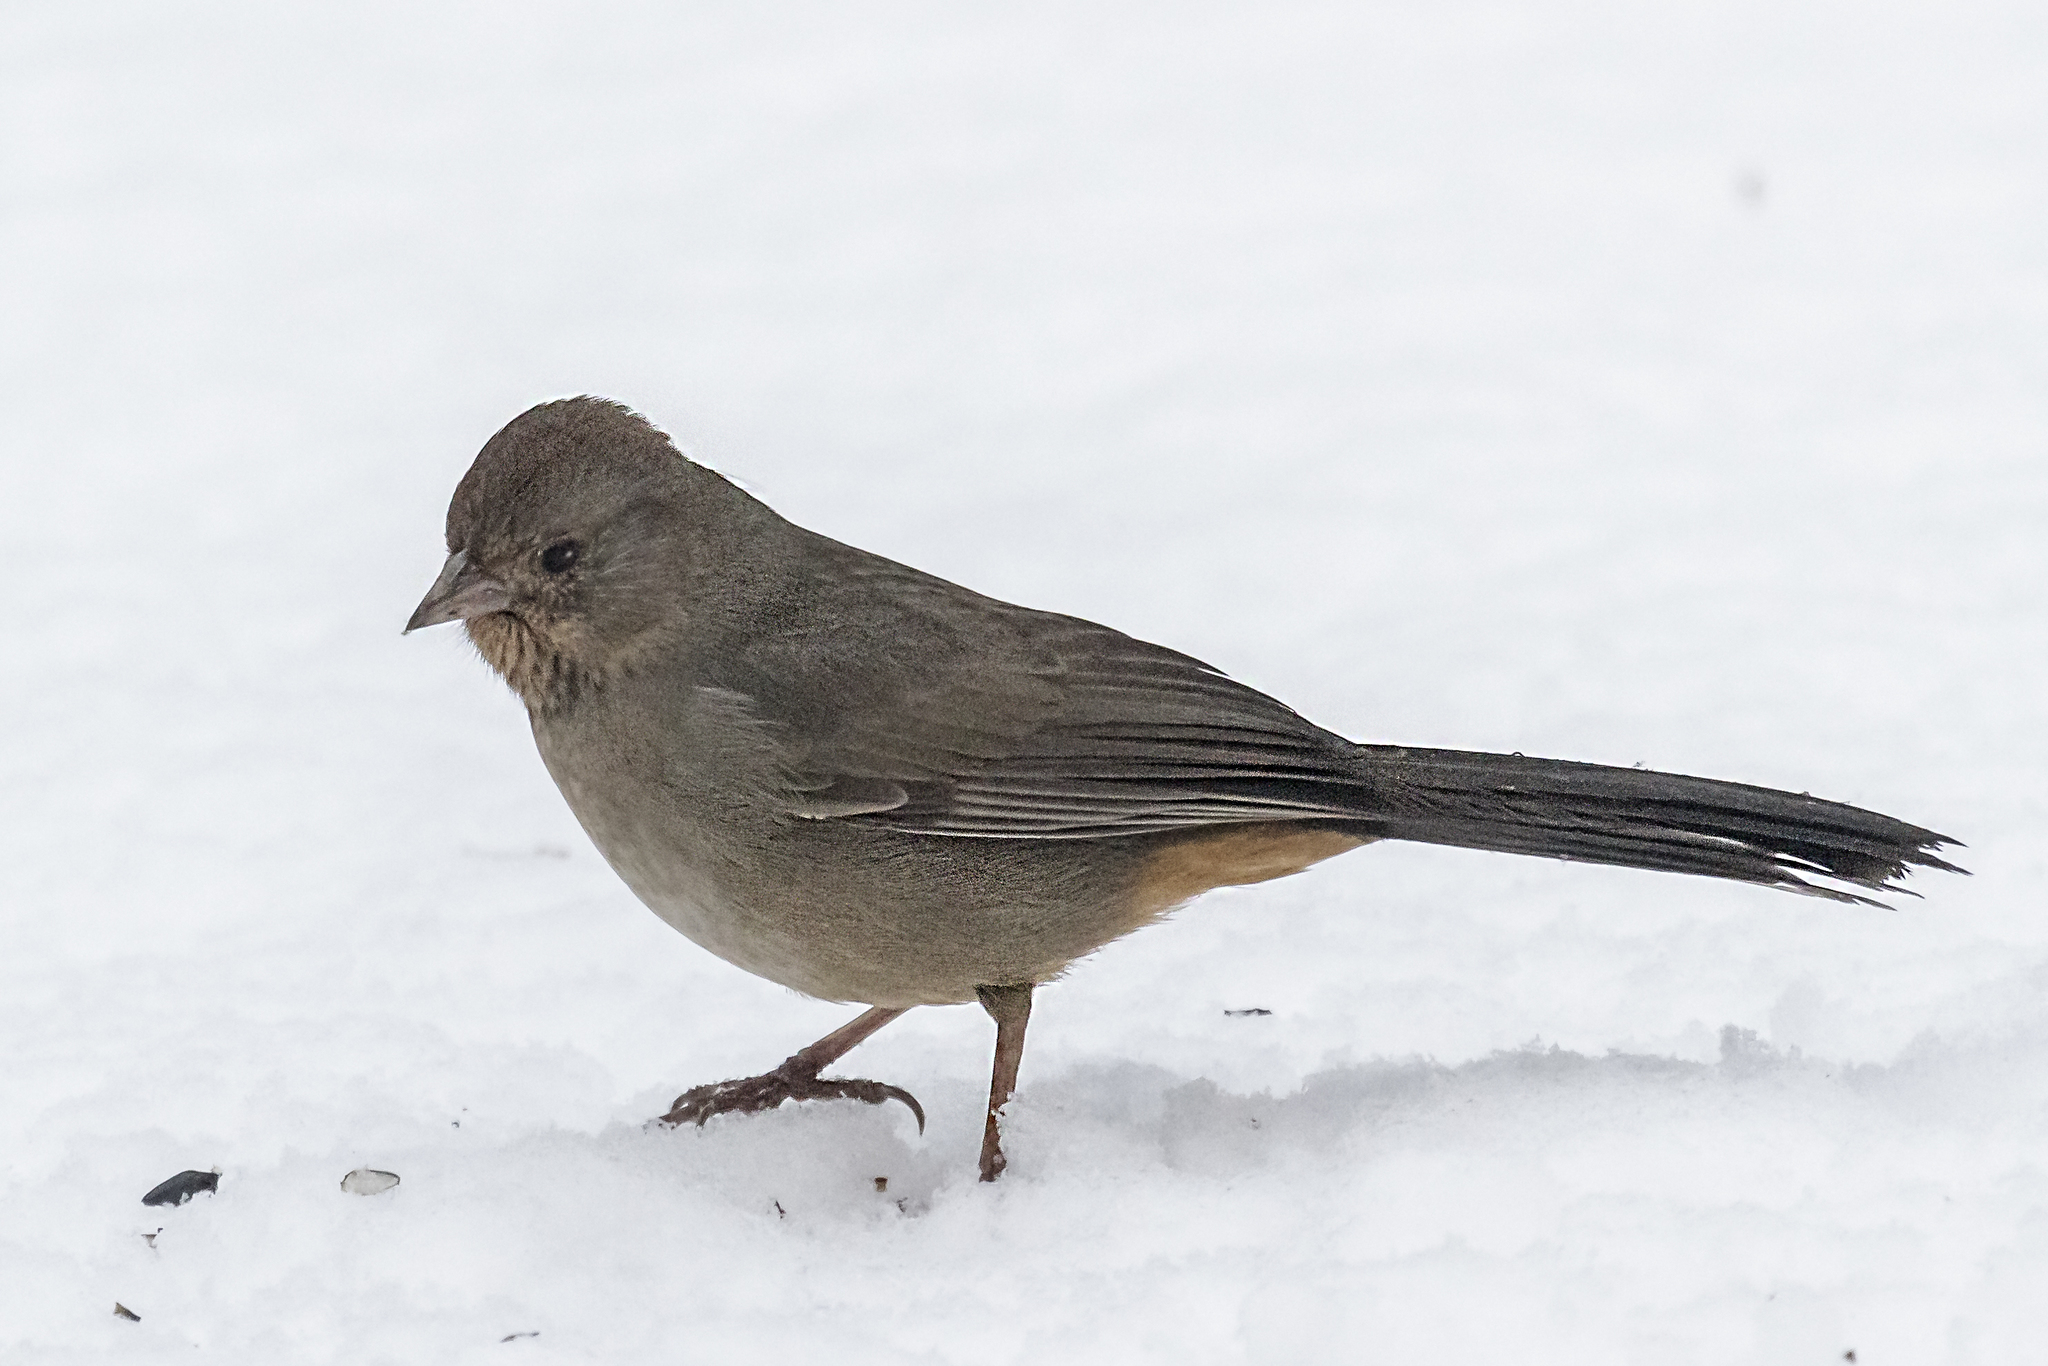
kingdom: Animalia
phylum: Chordata
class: Aves
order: Passeriformes
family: Passerellidae
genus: Melozone
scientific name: Melozone crissalis
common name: California towhee
